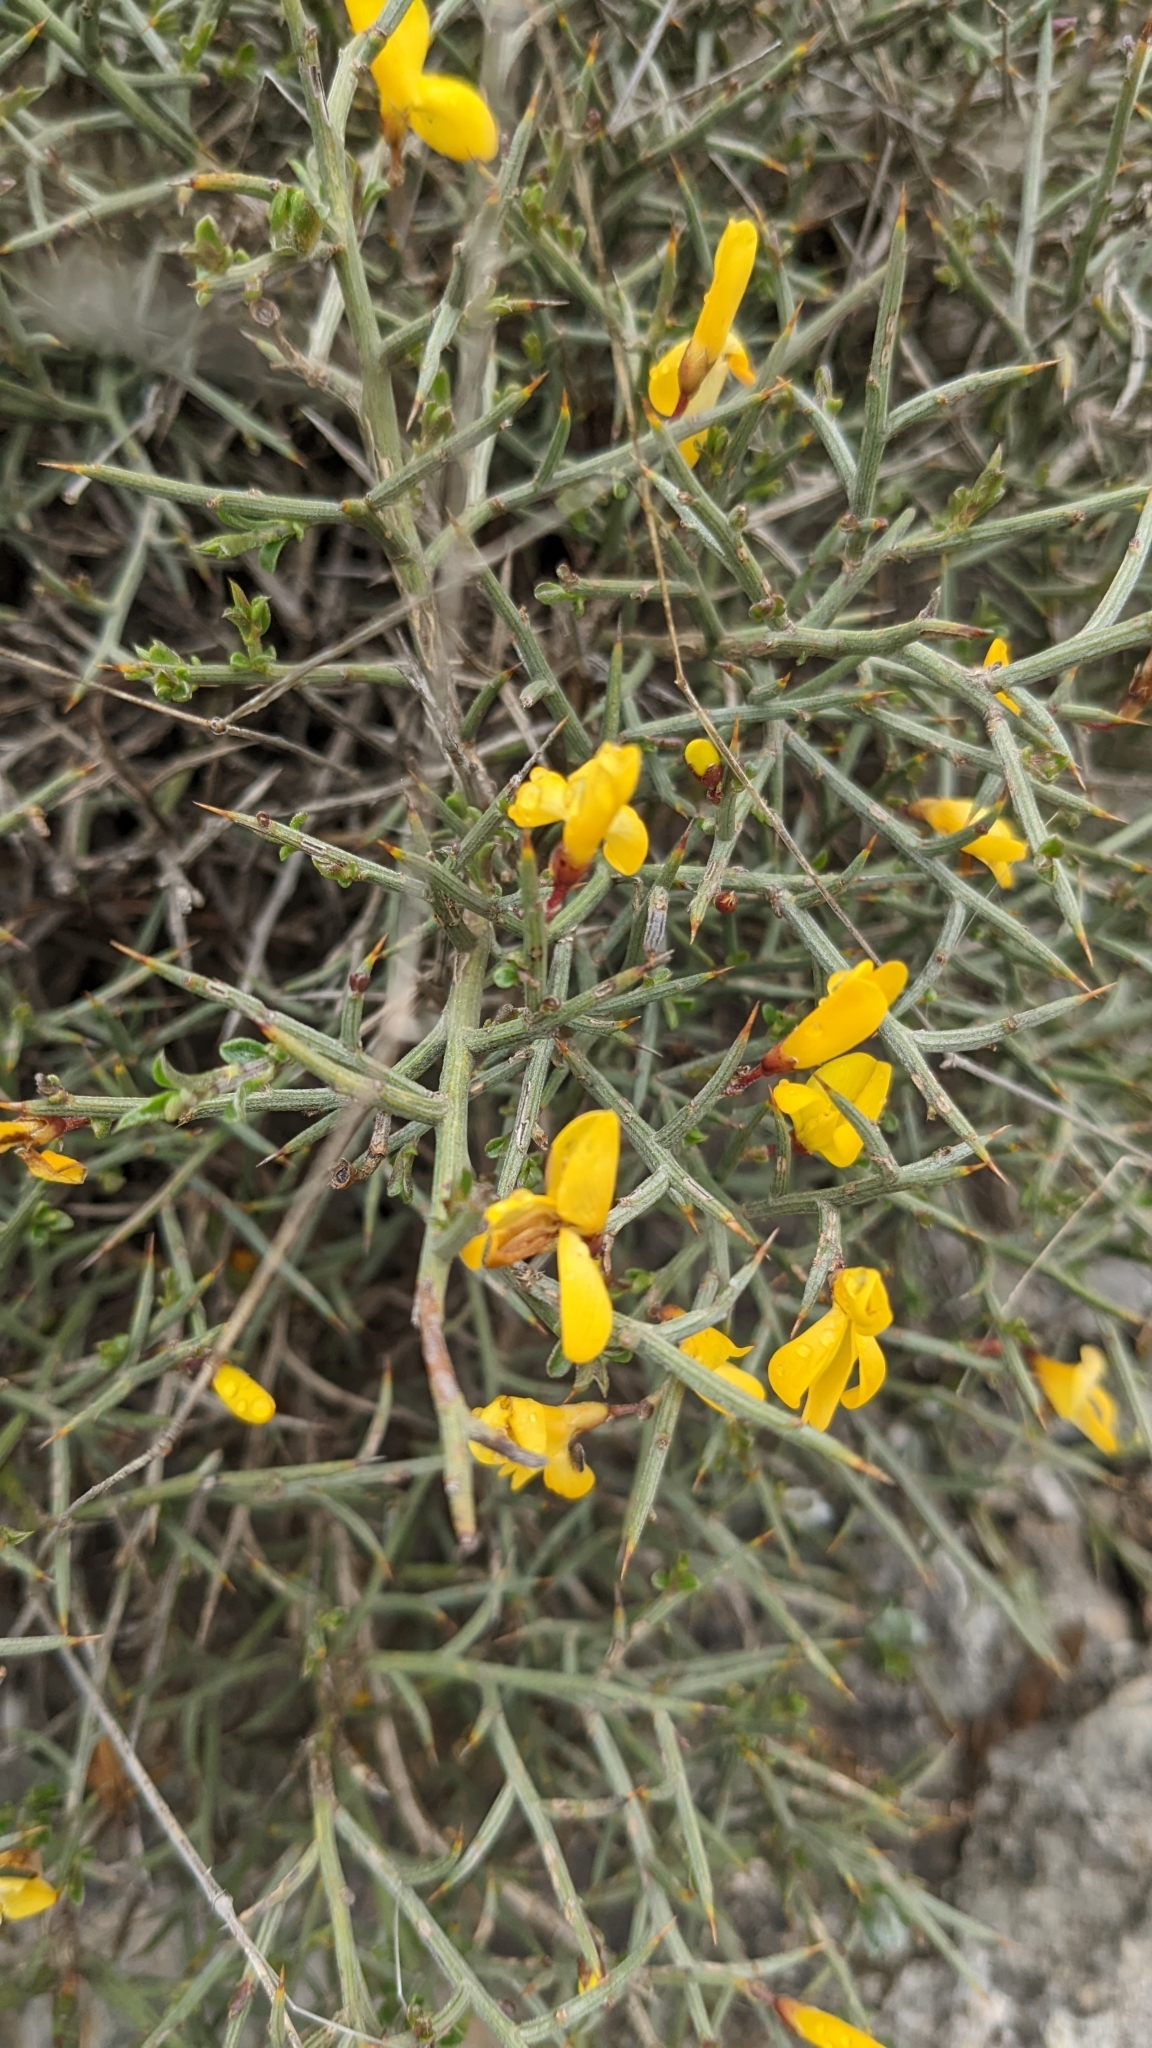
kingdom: Plantae
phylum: Tracheophyta
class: Magnoliopsida
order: Fabales
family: Fabaceae
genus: Genista
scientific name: Genista scorpius
